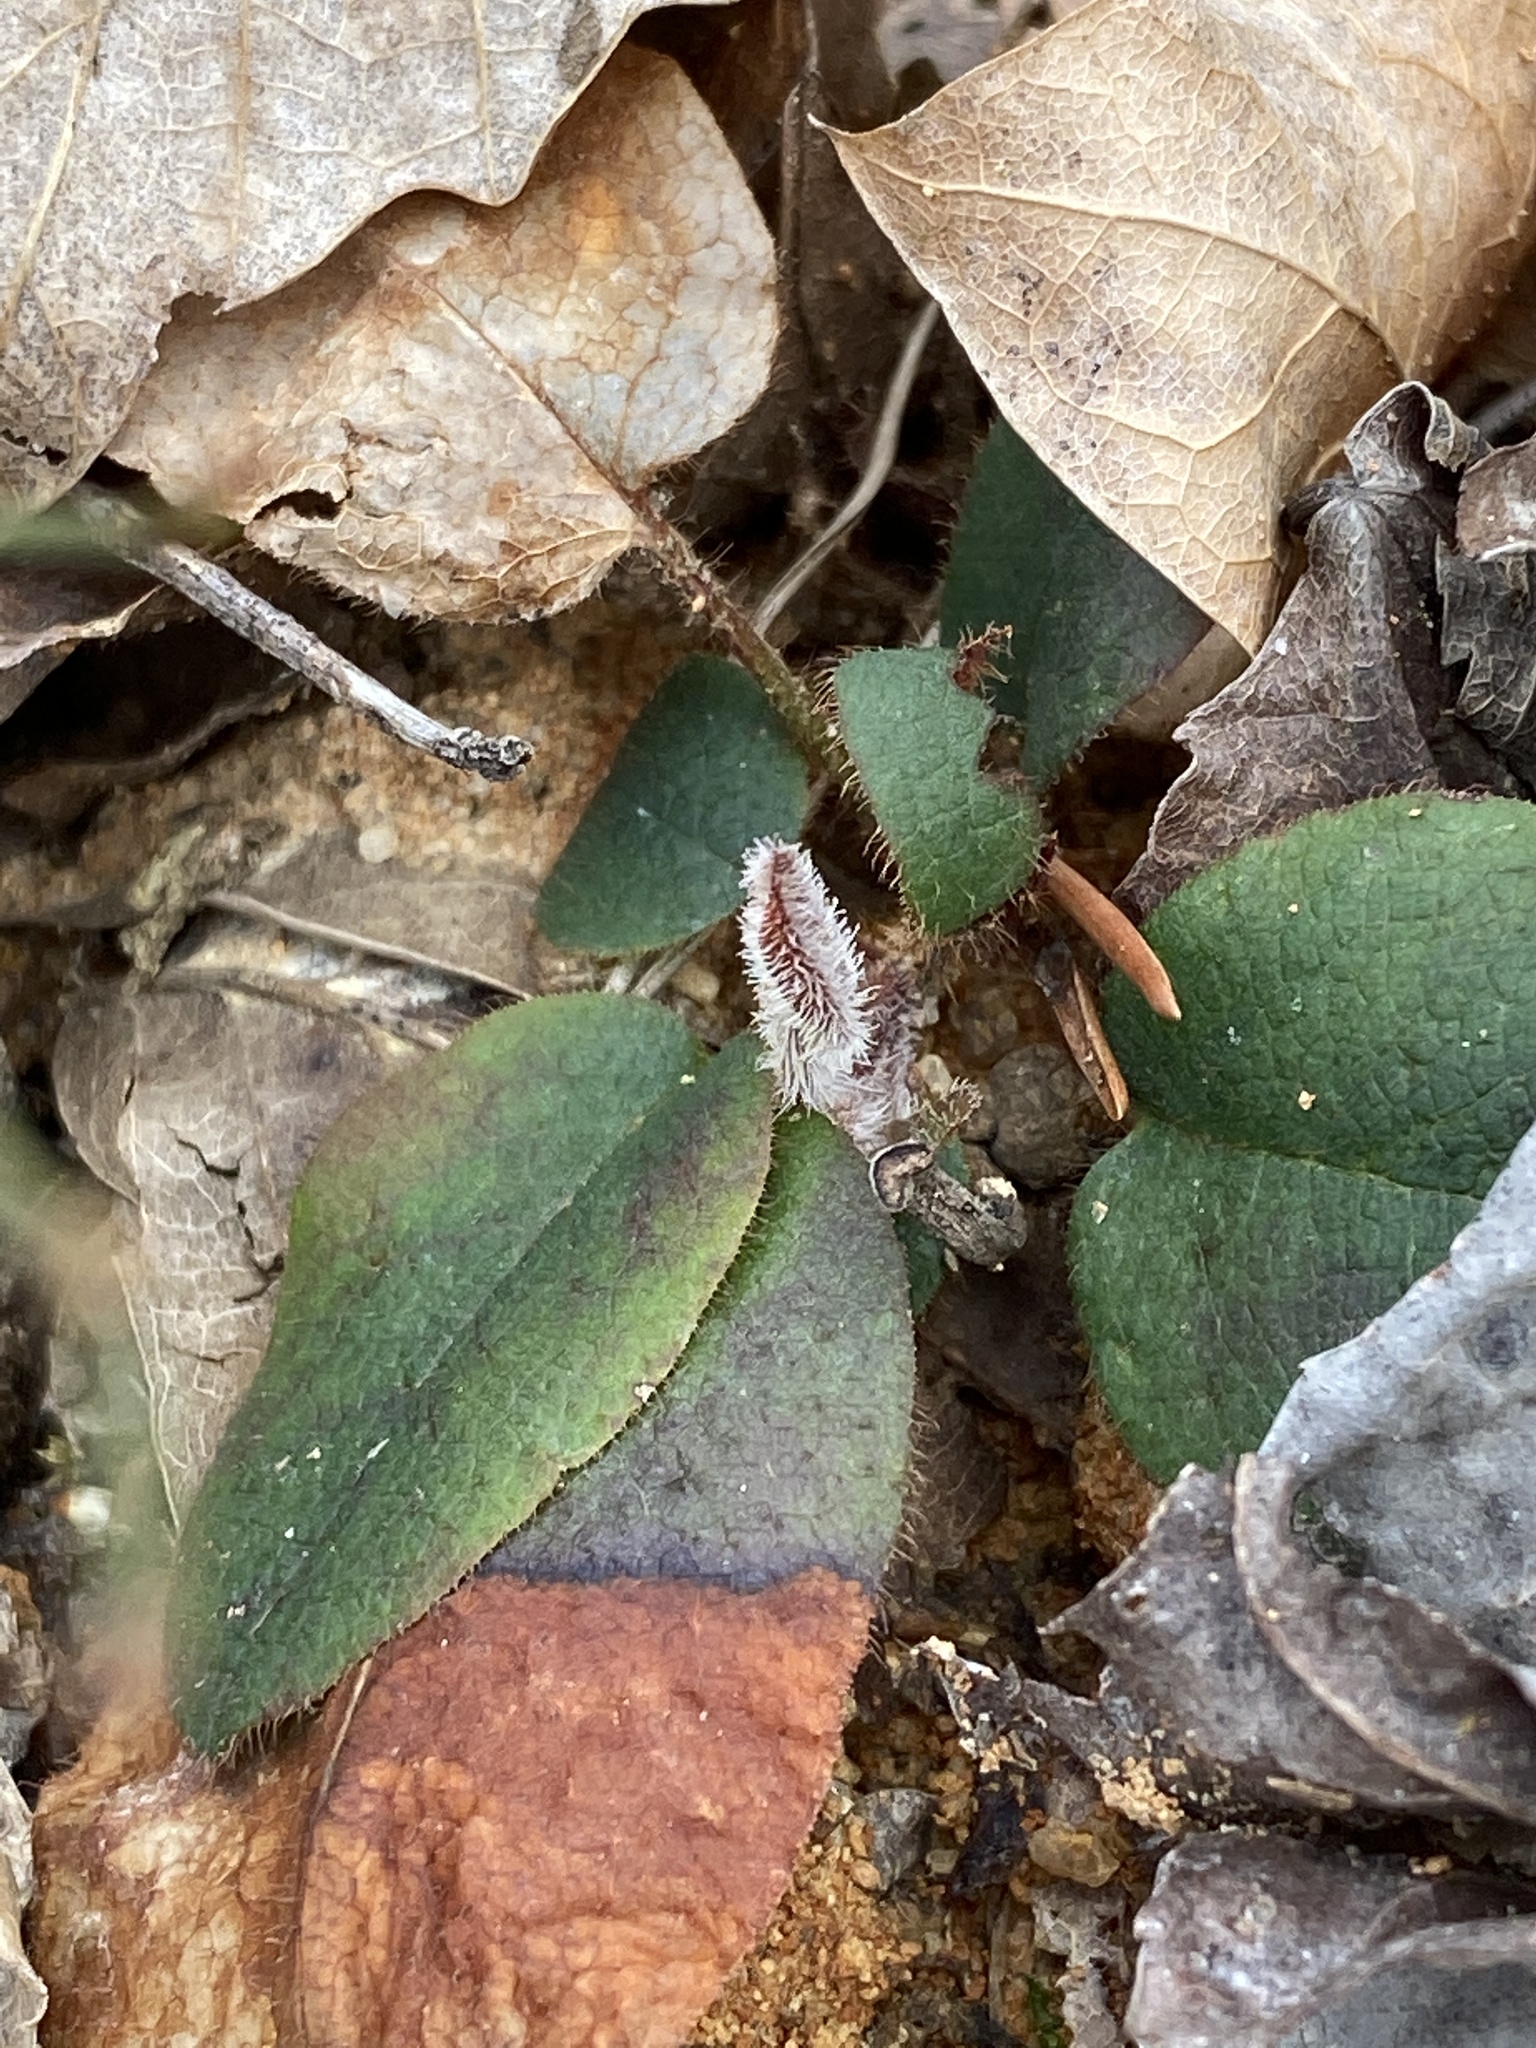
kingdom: Plantae
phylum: Tracheophyta
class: Magnoliopsida
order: Ericales
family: Ericaceae
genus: Epigaea
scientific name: Epigaea repens
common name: Gravelroot
